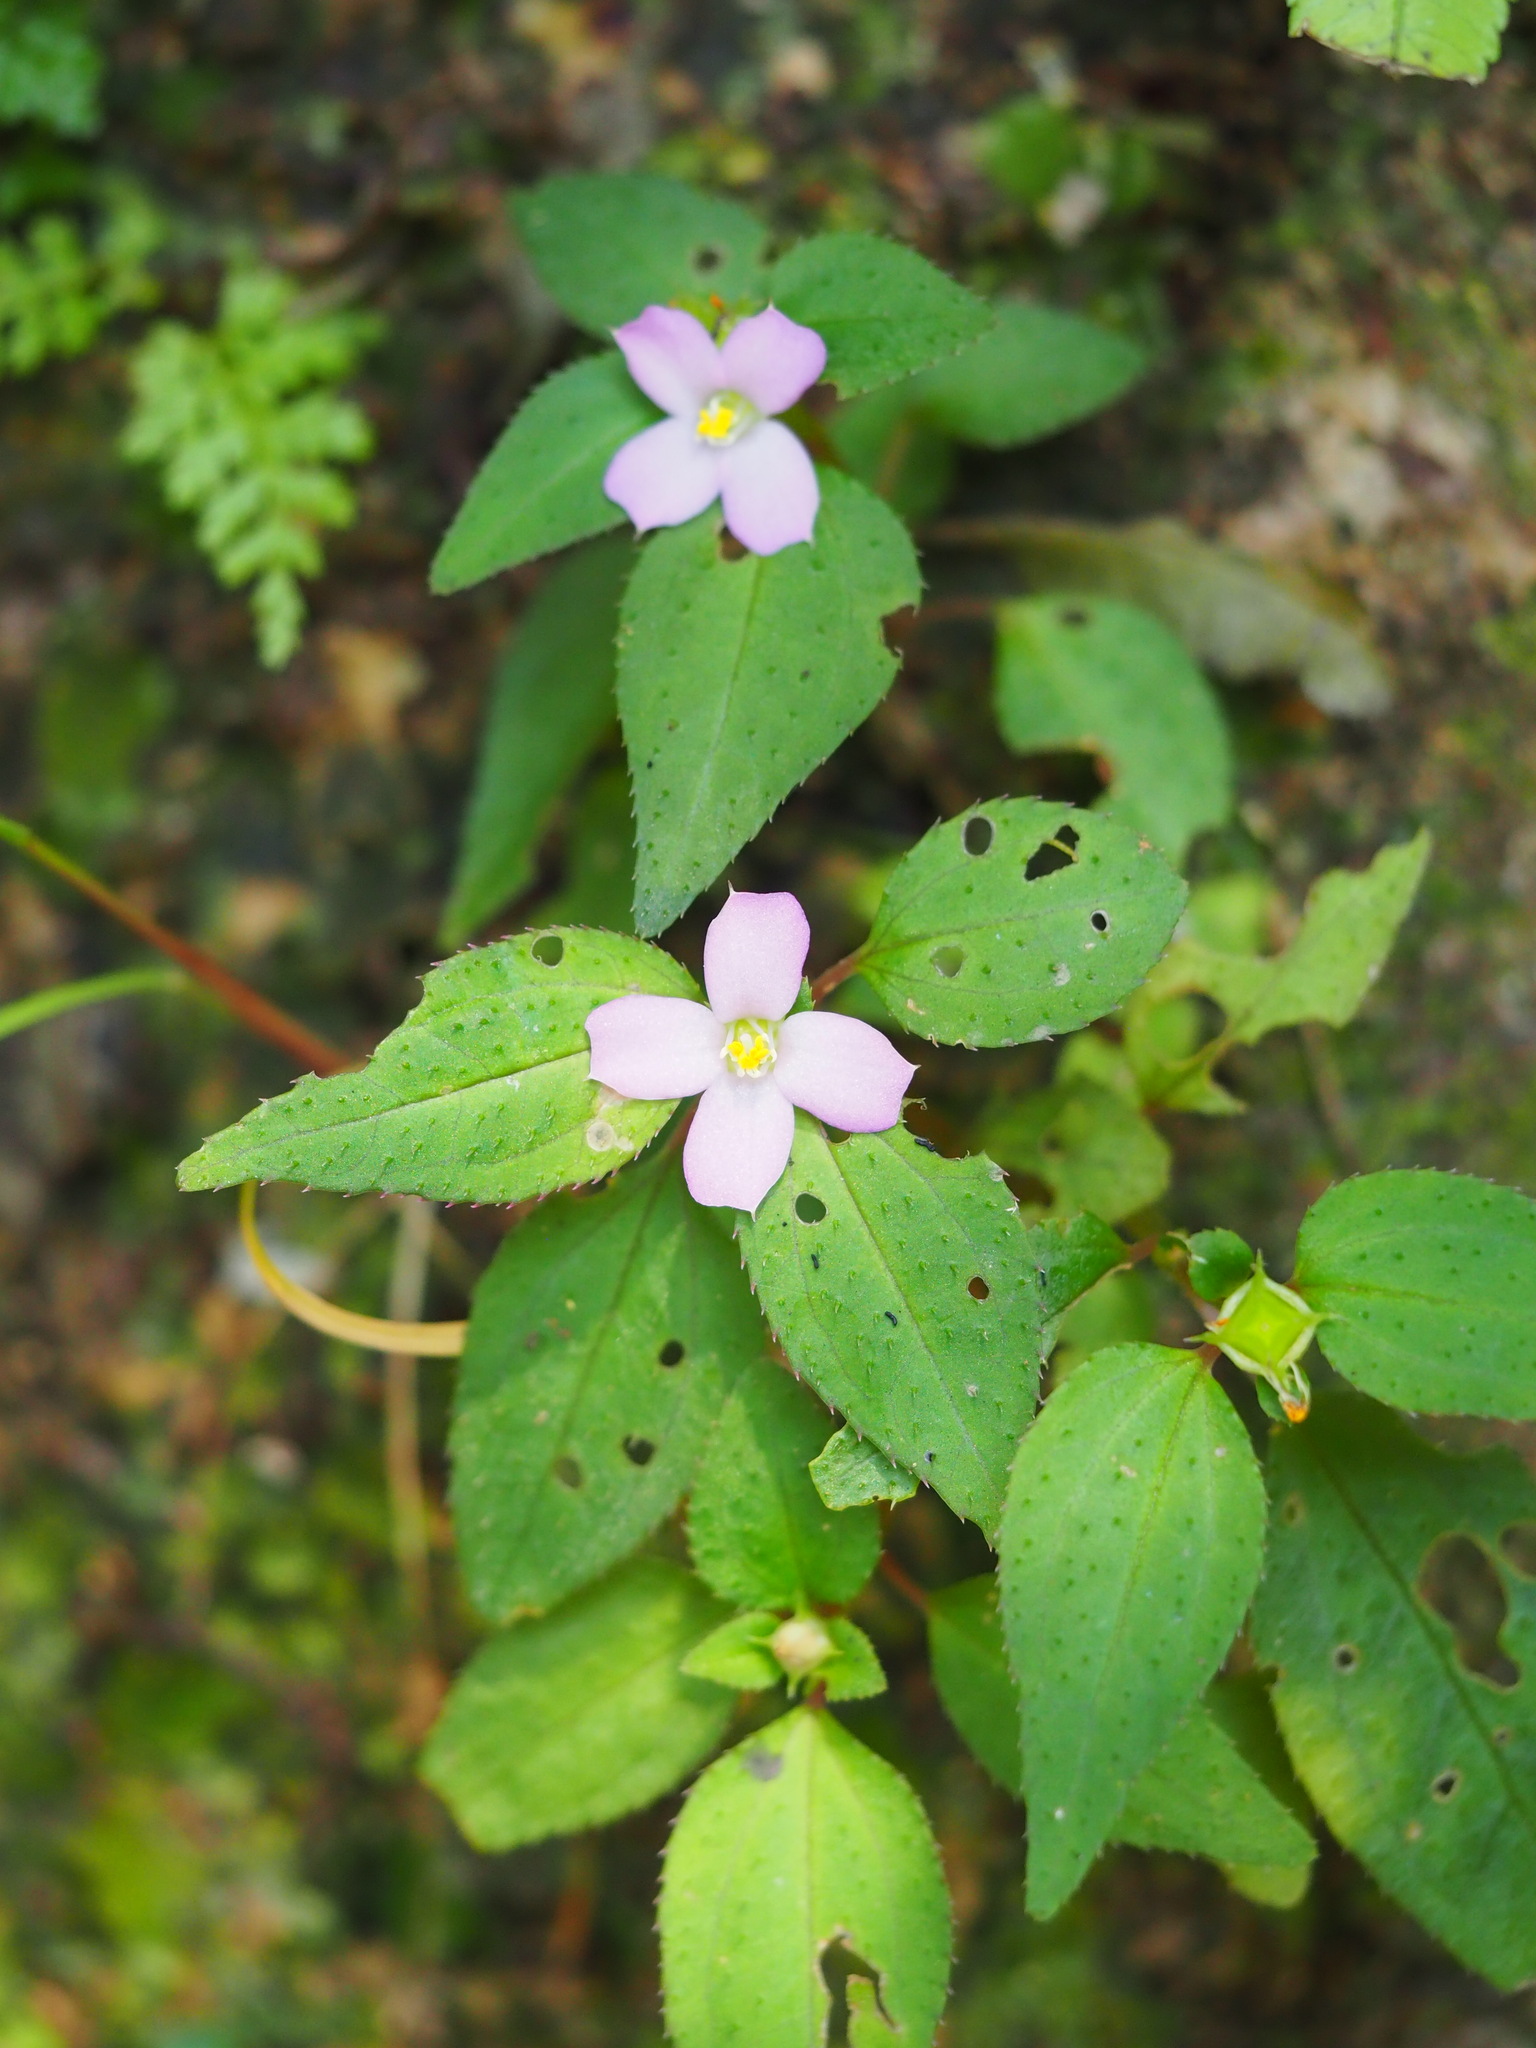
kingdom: Plantae
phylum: Tracheophyta
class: Magnoliopsida
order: Myrtales
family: Melastomataceae
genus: Sarcopyramis
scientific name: Sarcopyramis napalensis
